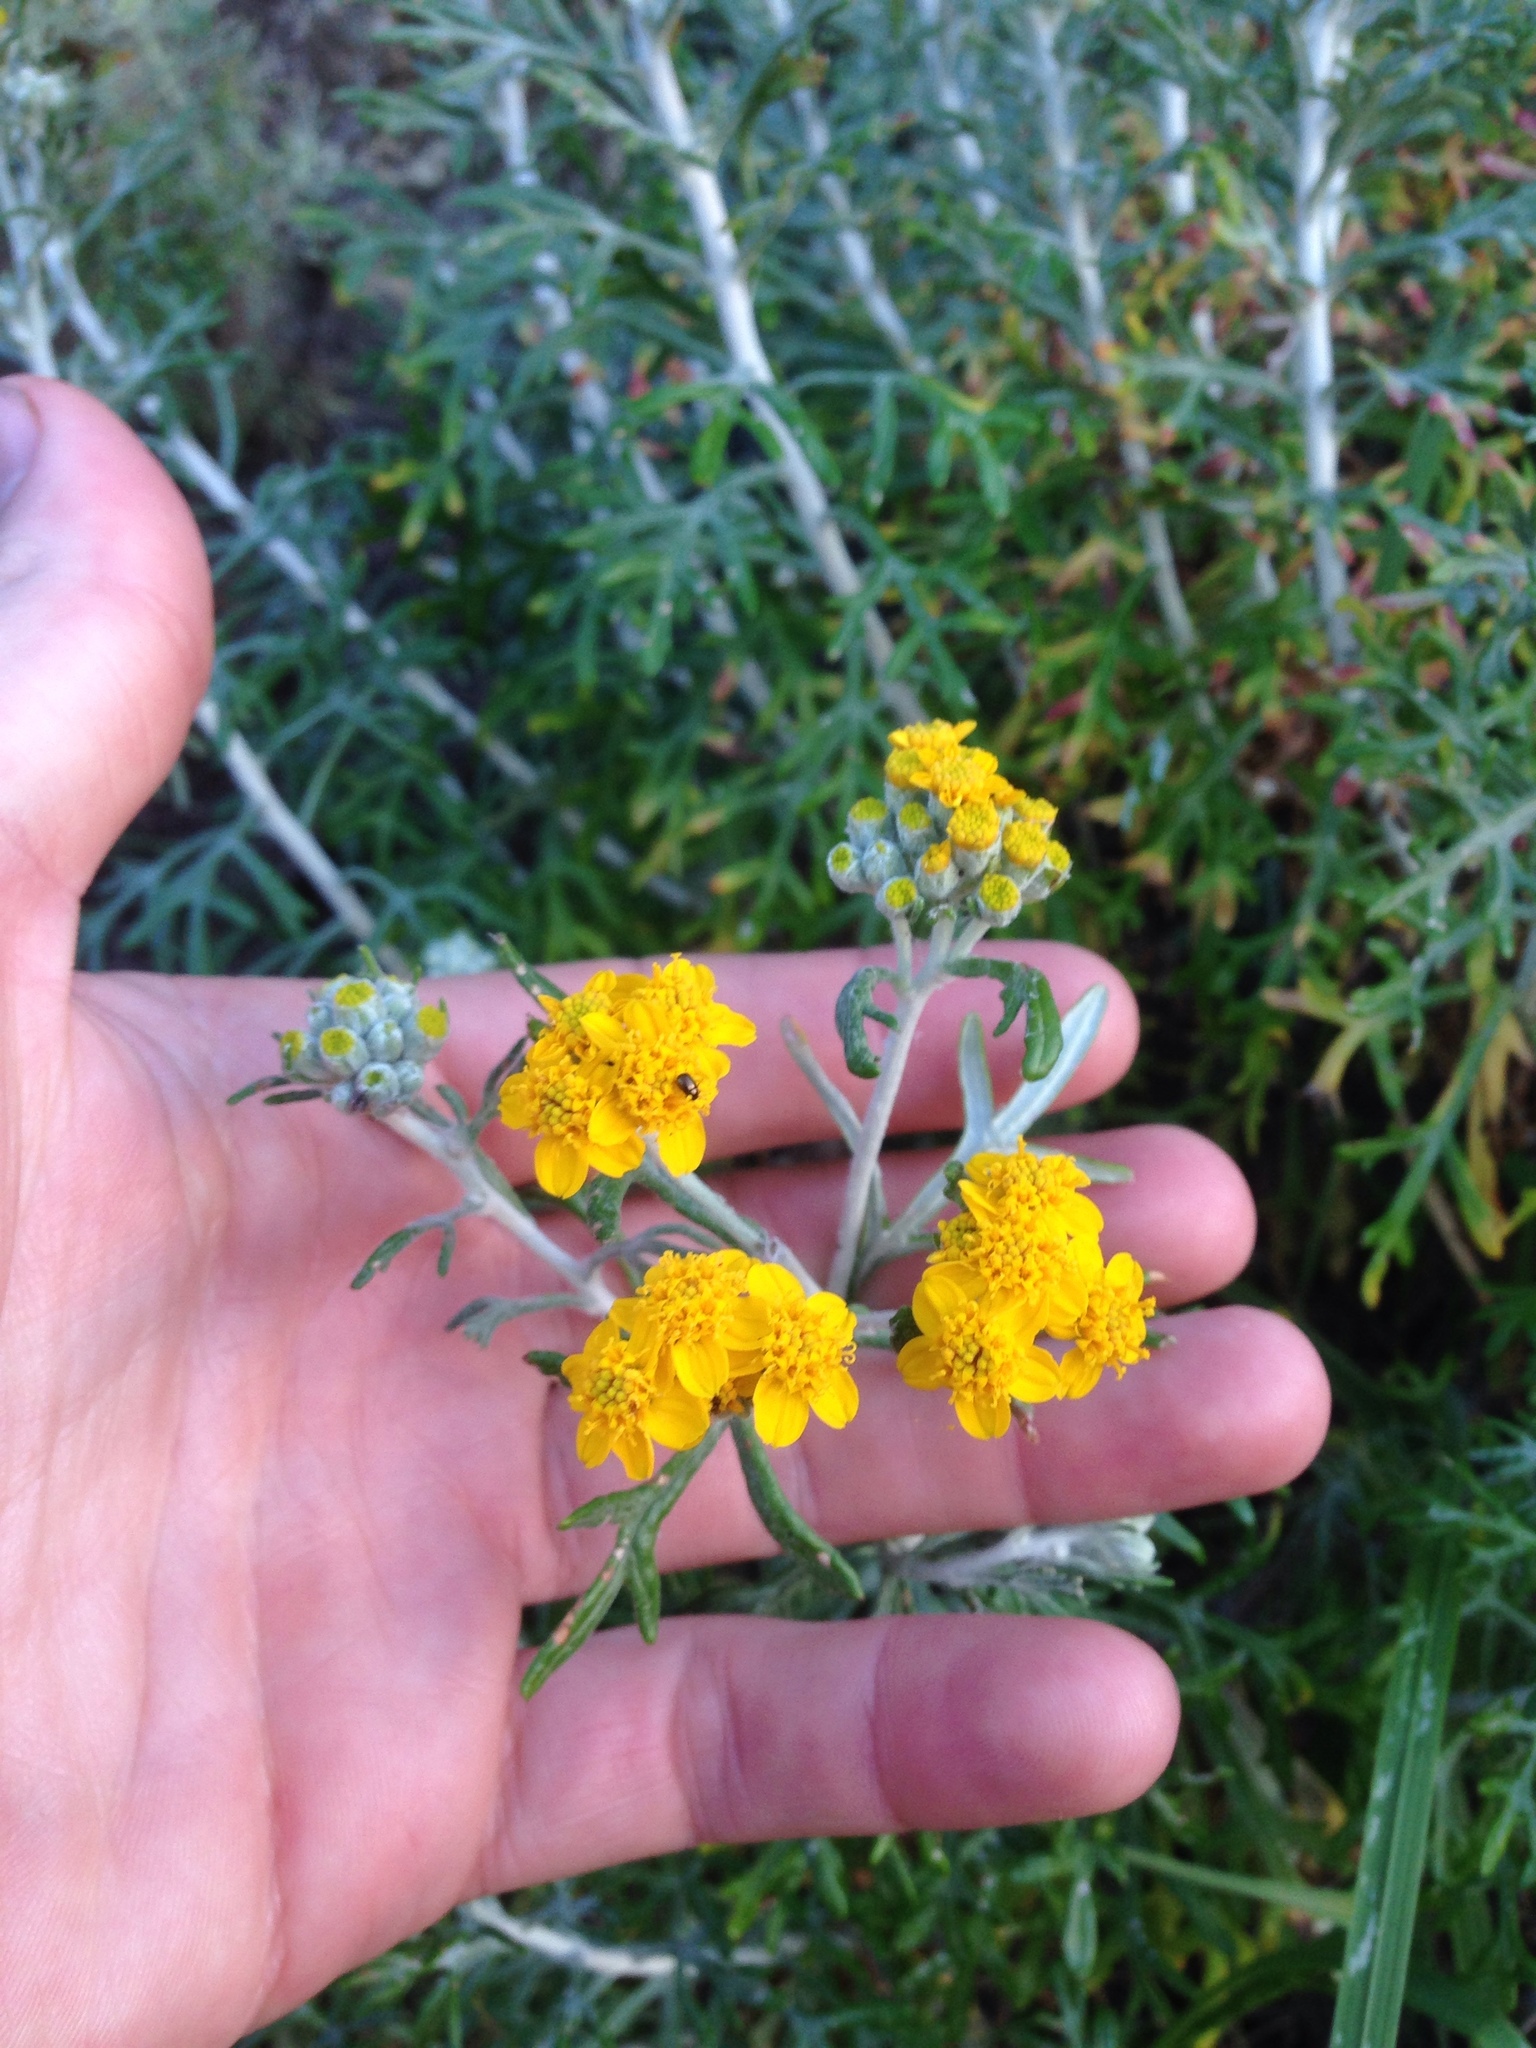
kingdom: Plantae
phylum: Tracheophyta
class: Magnoliopsida
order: Asterales
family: Asteraceae
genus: Eriophyllum
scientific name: Eriophyllum confertiflorum
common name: Golden-yarrow
